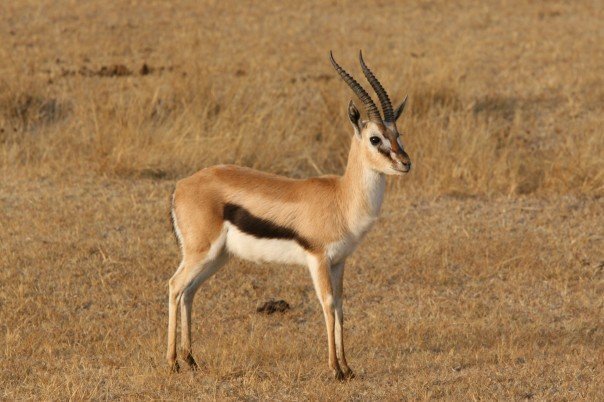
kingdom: Animalia
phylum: Chordata
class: Mammalia
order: Artiodactyla
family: Bovidae
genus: Eudorcas
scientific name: Eudorcas thomsonii
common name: Thomson's gazelle
